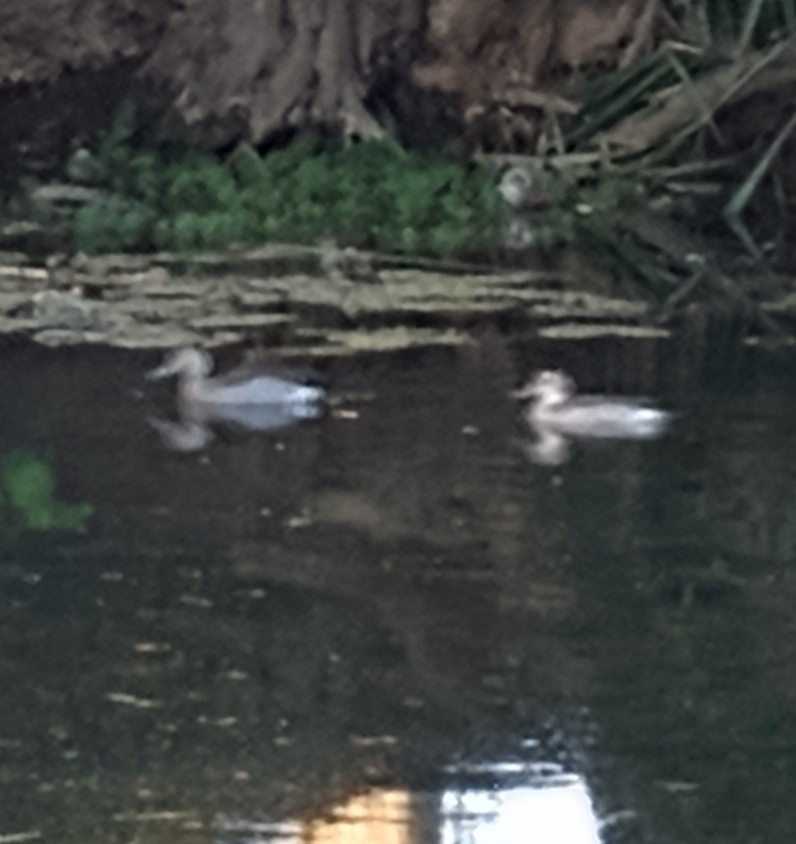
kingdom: Animalia
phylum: Chordata
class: Aves
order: Anseriformes
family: Anatidae
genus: Callonetta
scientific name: Callonetta leucophrys
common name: Ringed teal
